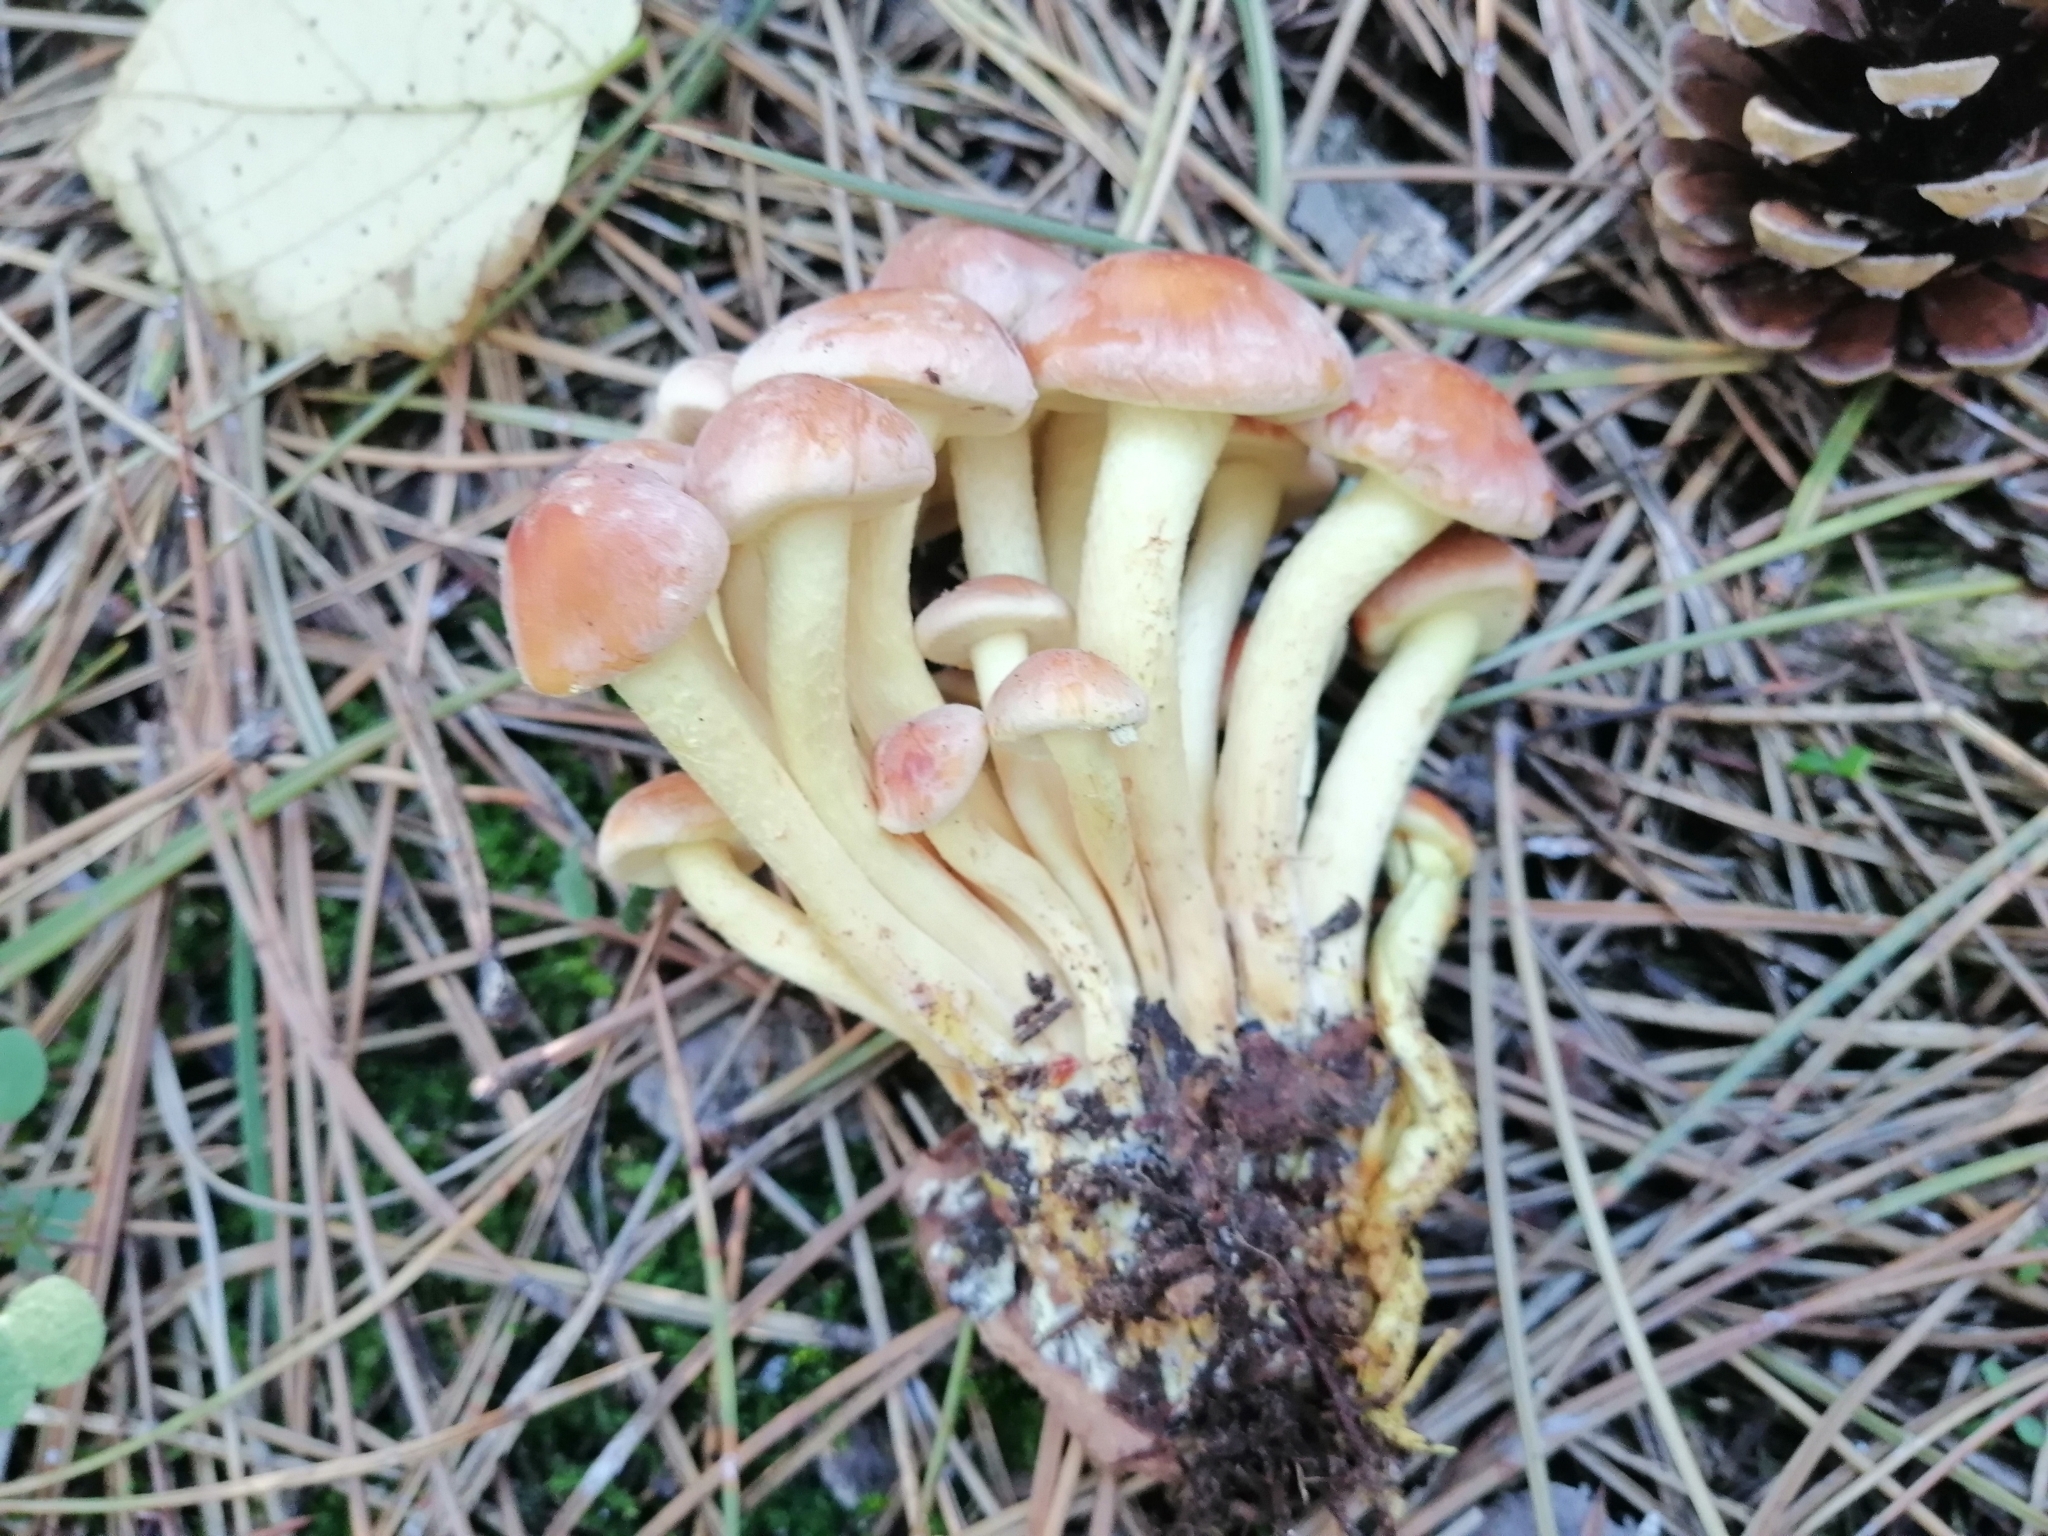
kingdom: Fungi
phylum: Basidiomycota
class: Agaricomycetes
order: Agaricales
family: Strophariaceae
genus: Hypholoma
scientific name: Hypholoma fasciculare
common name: Sulphur tuft
